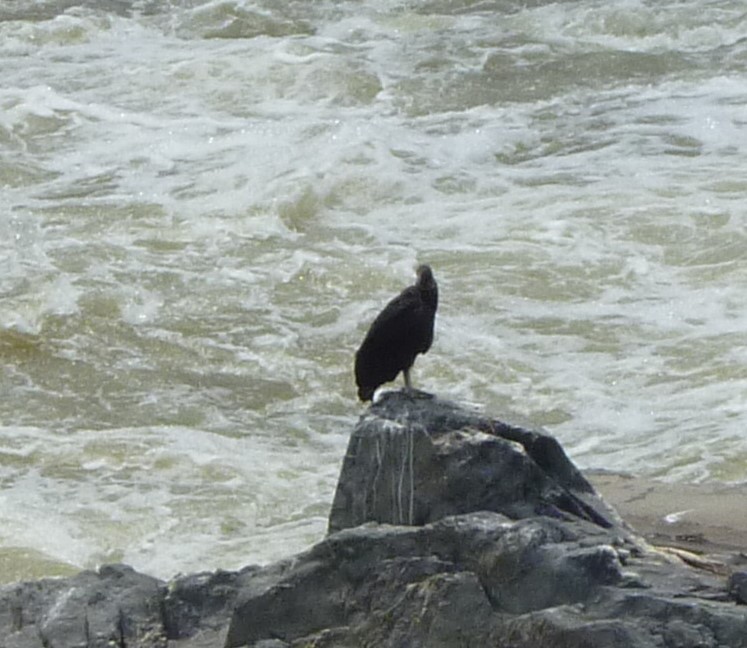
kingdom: Animalia
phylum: Chordata
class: Aves
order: Accipitriformes
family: Cathartidae
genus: Coragyps
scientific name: Coragyps atratus
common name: Black vulture
